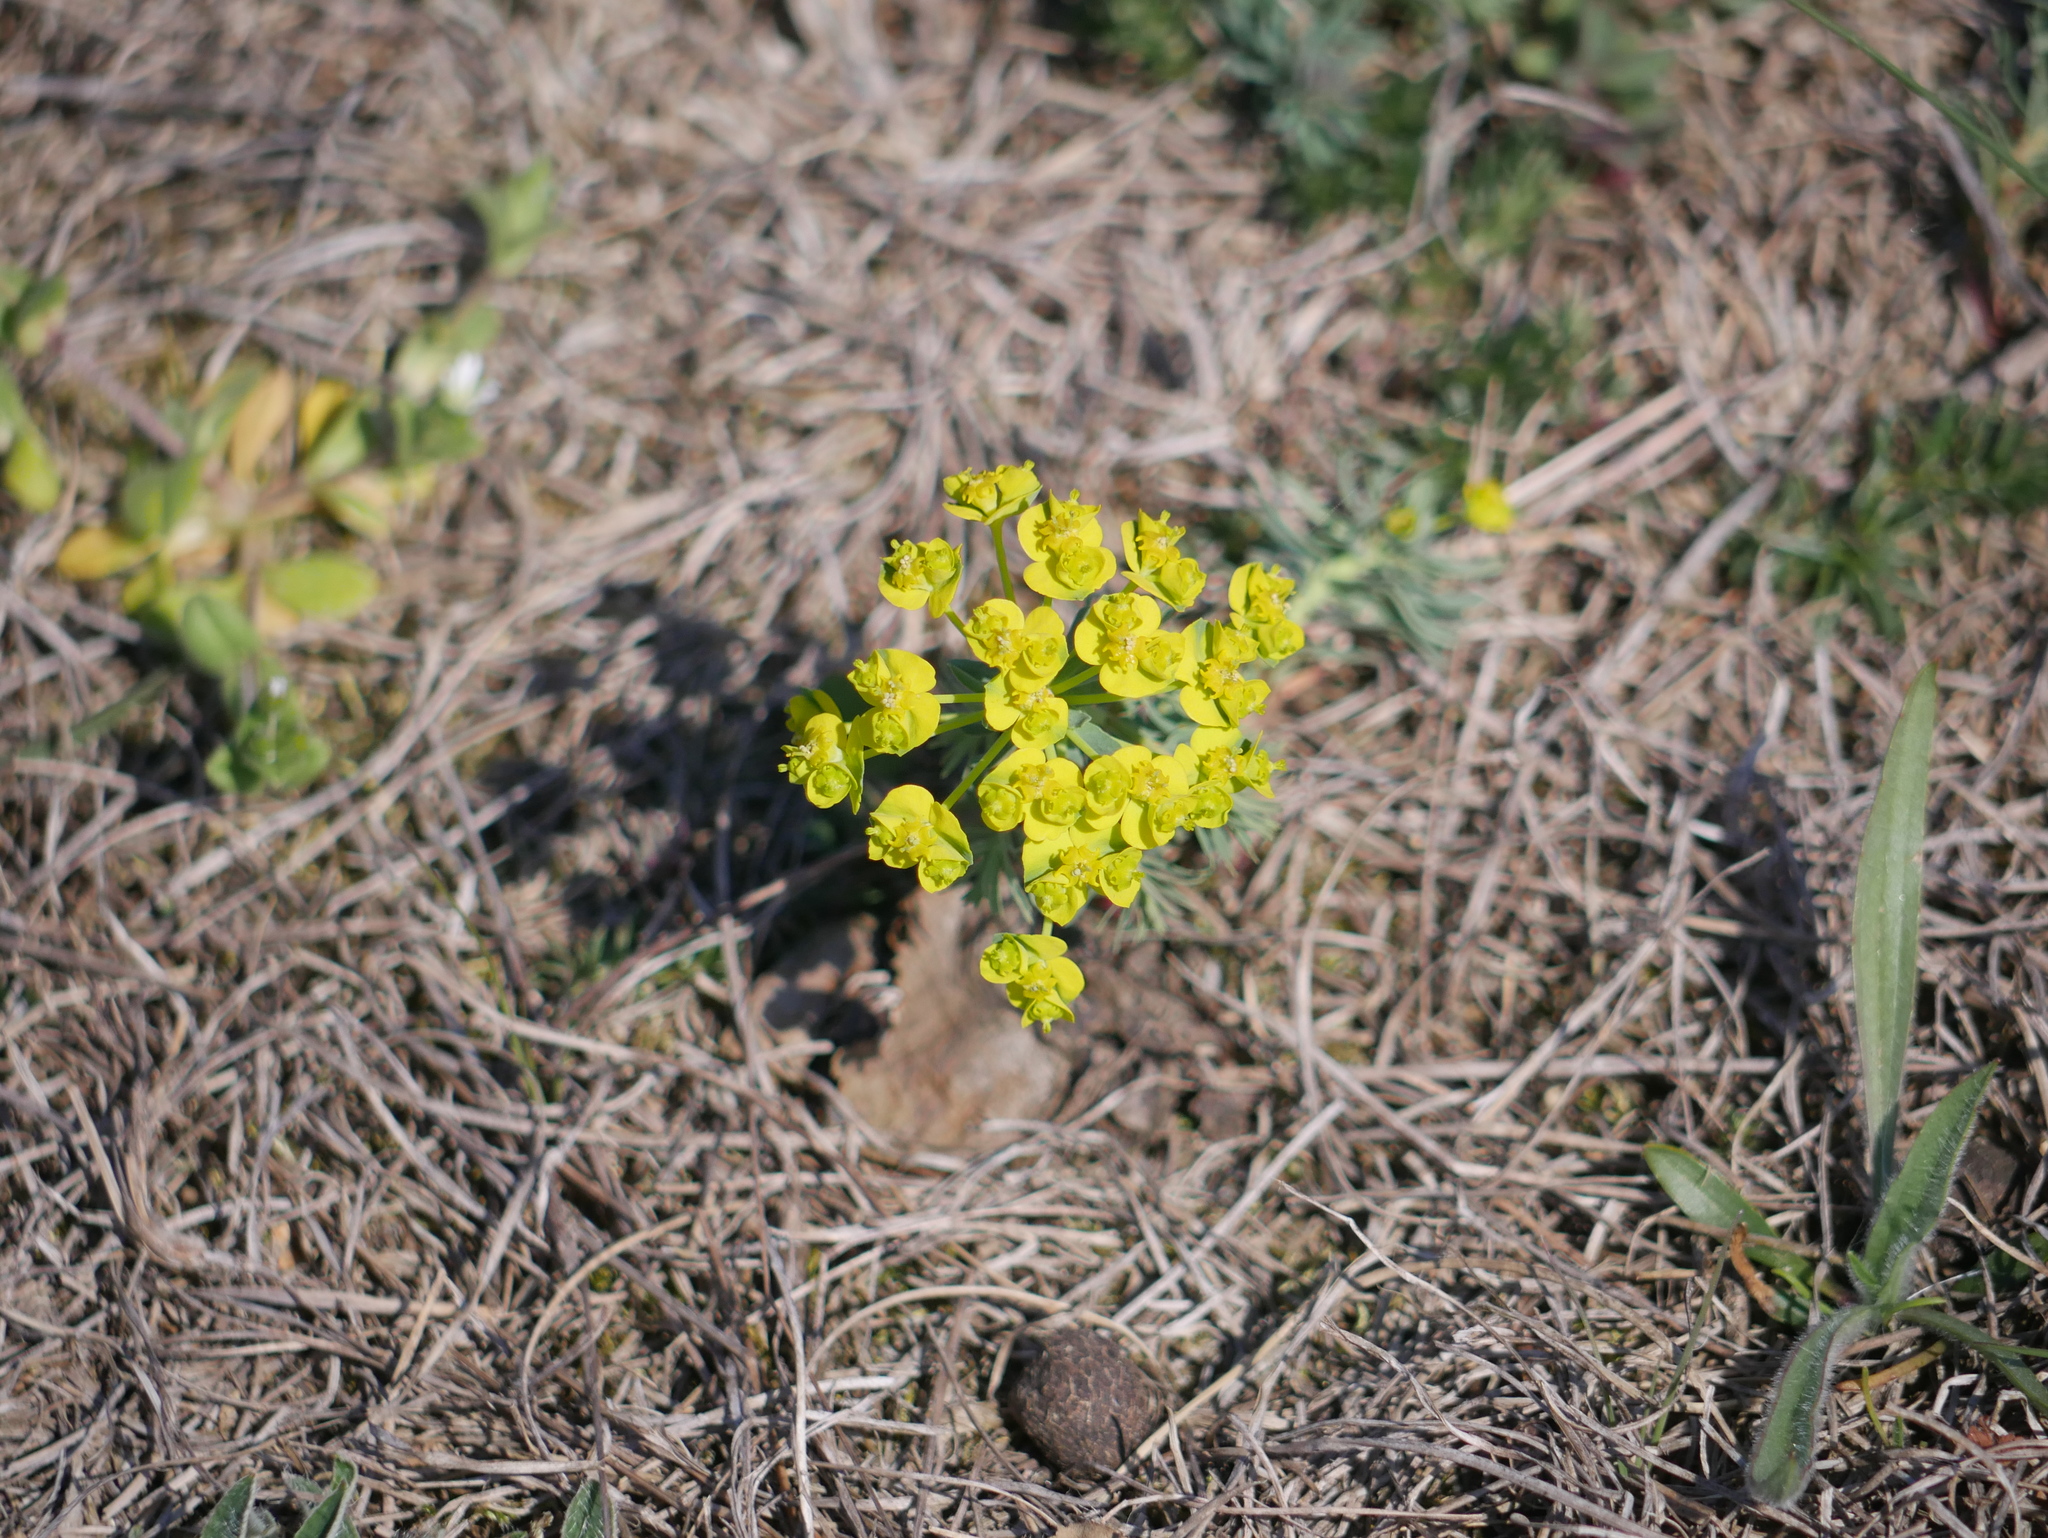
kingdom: Plantae
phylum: Tracheophyta
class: Magnoliopsida
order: Malpighiales
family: Euphorbiaceae
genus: Euphorbia
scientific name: Euphorbia cyparissias
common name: Cypress spurge
